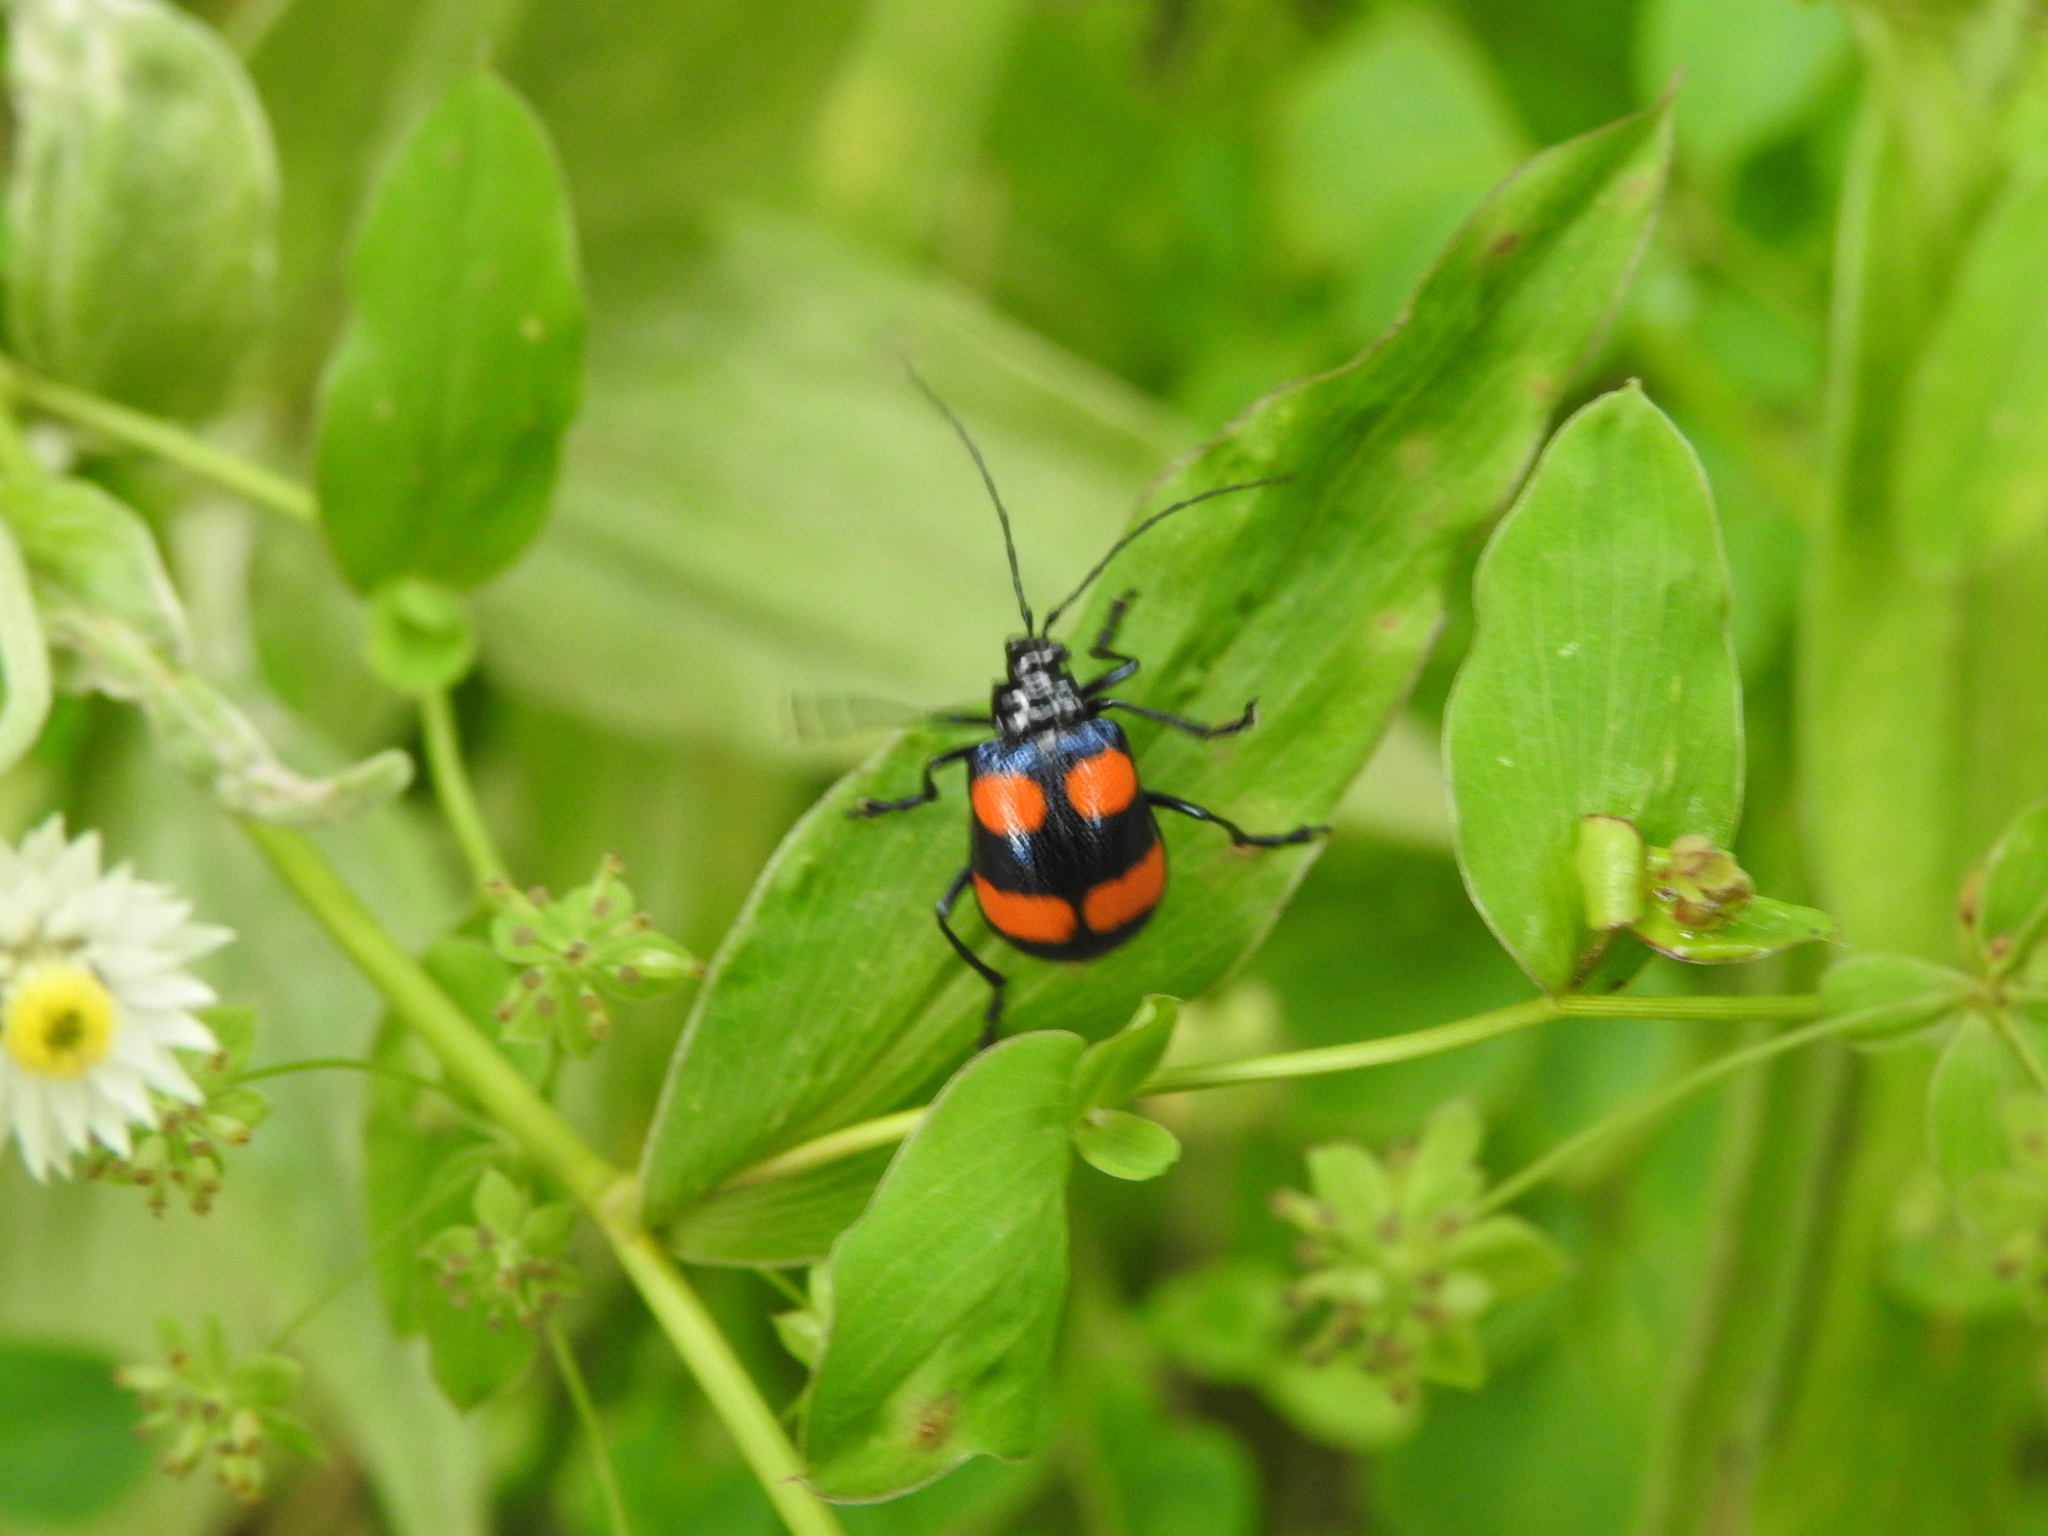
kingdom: Animalia
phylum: Arthropoda
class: Insecta
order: Coleoptera
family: Chrysomelidae
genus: Meristata
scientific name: Meristata
